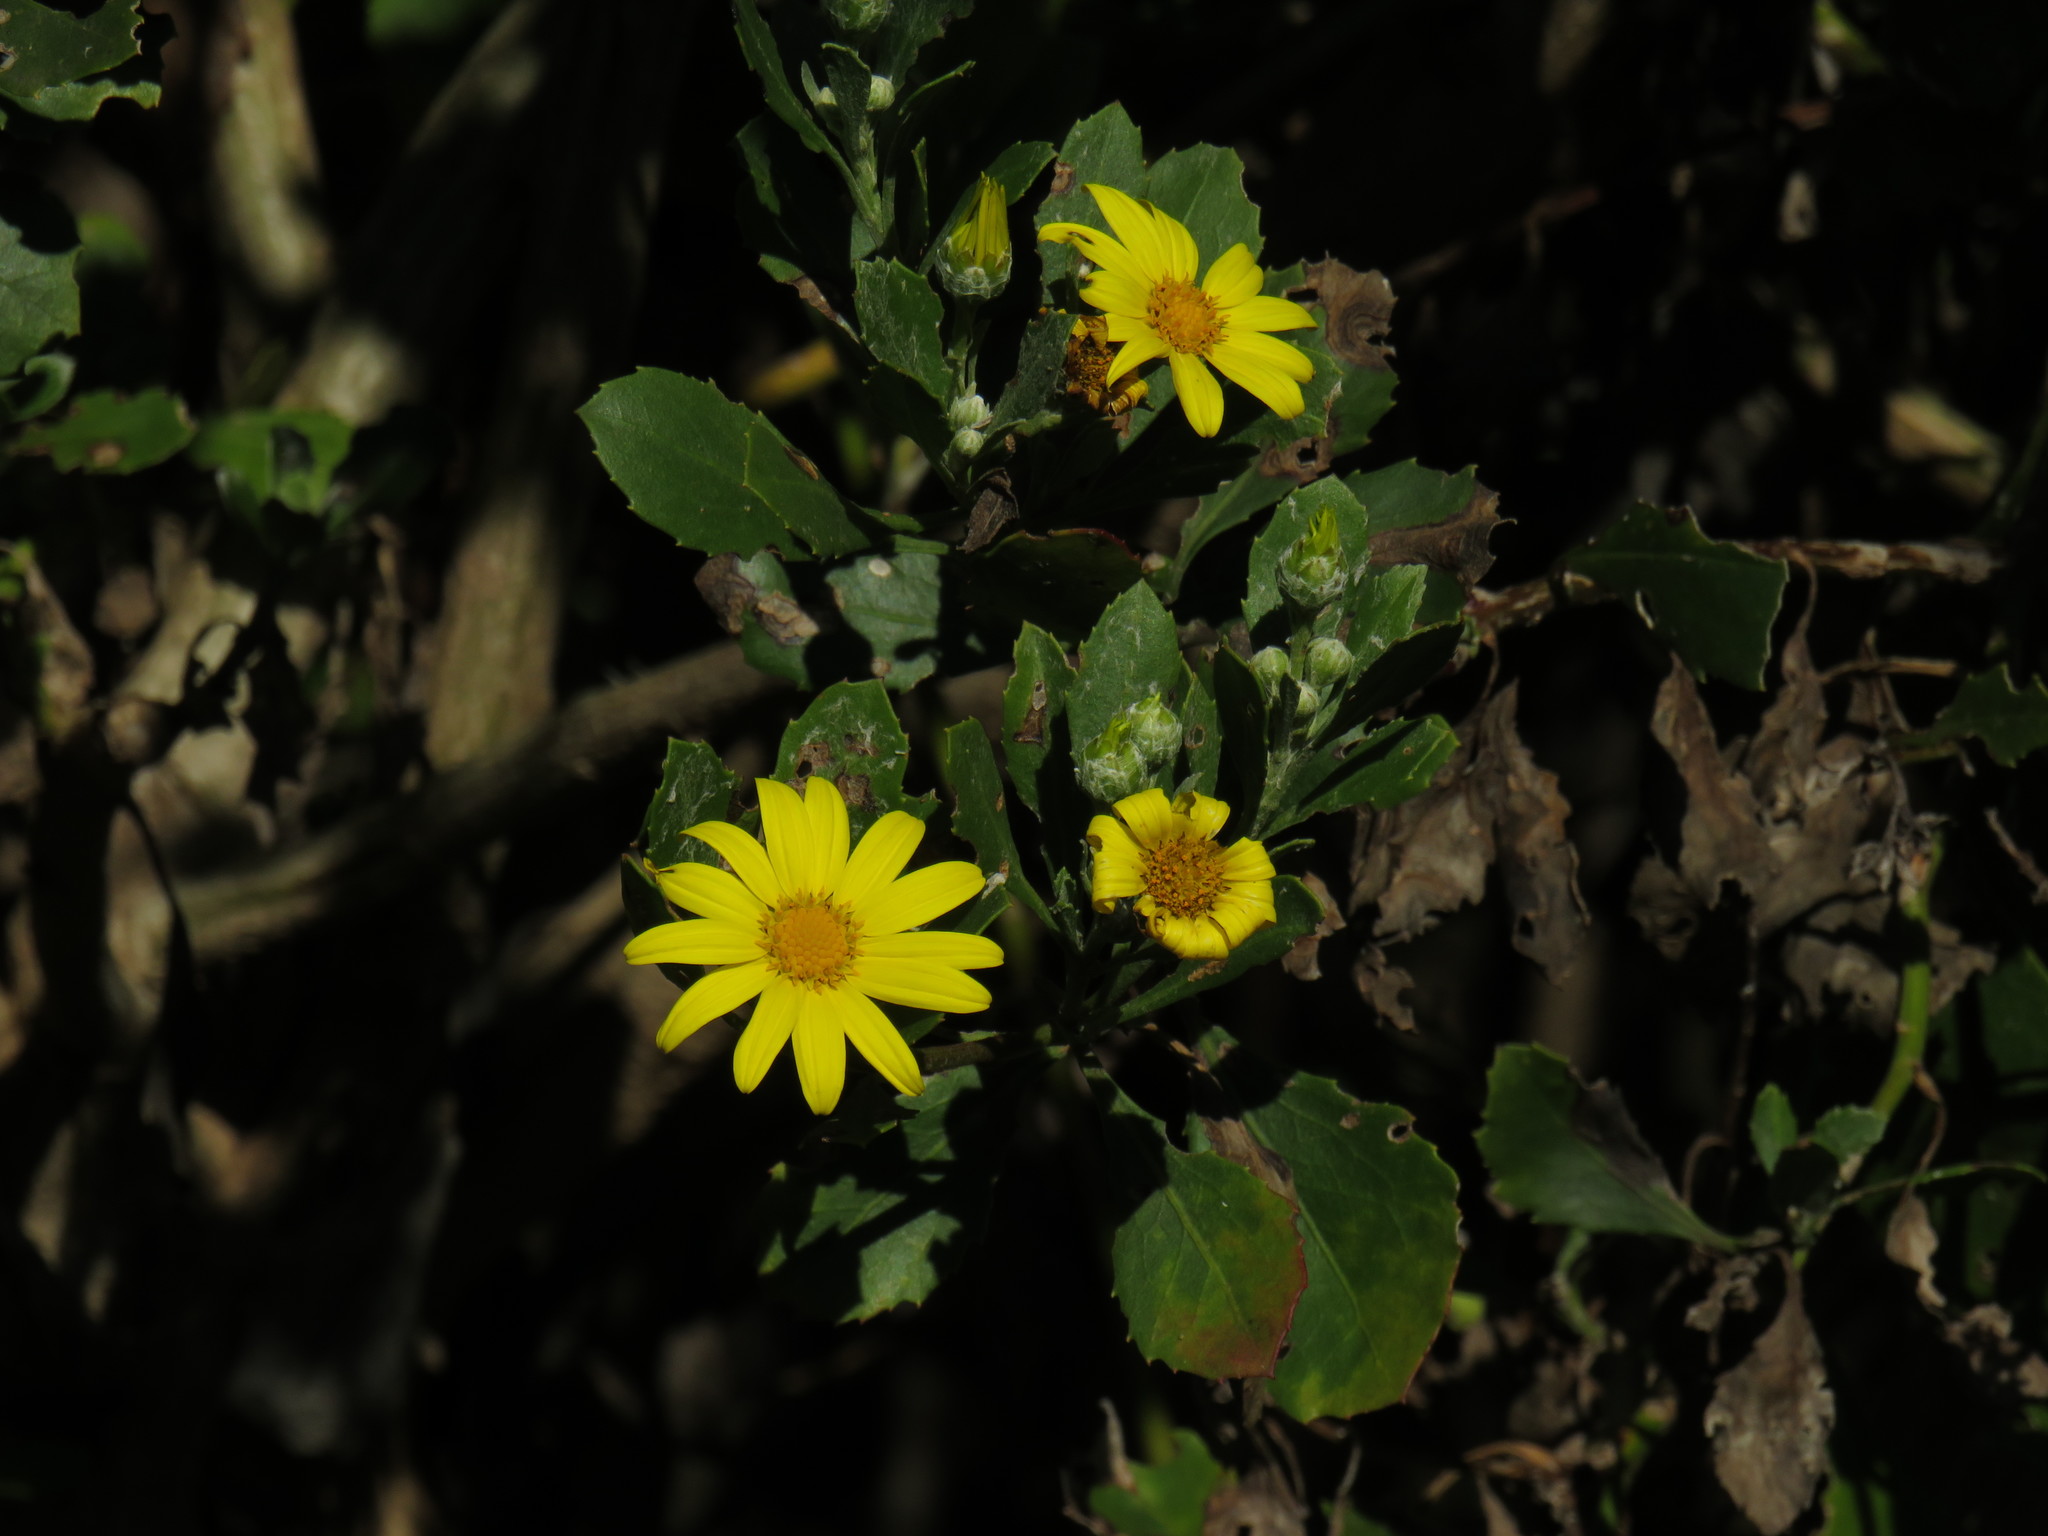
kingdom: Plantae
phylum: Tracheophyta
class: Magnoliopsida
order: Asterales
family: Asteraceae
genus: Osteospermum
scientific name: Osteospermum moniliferum
